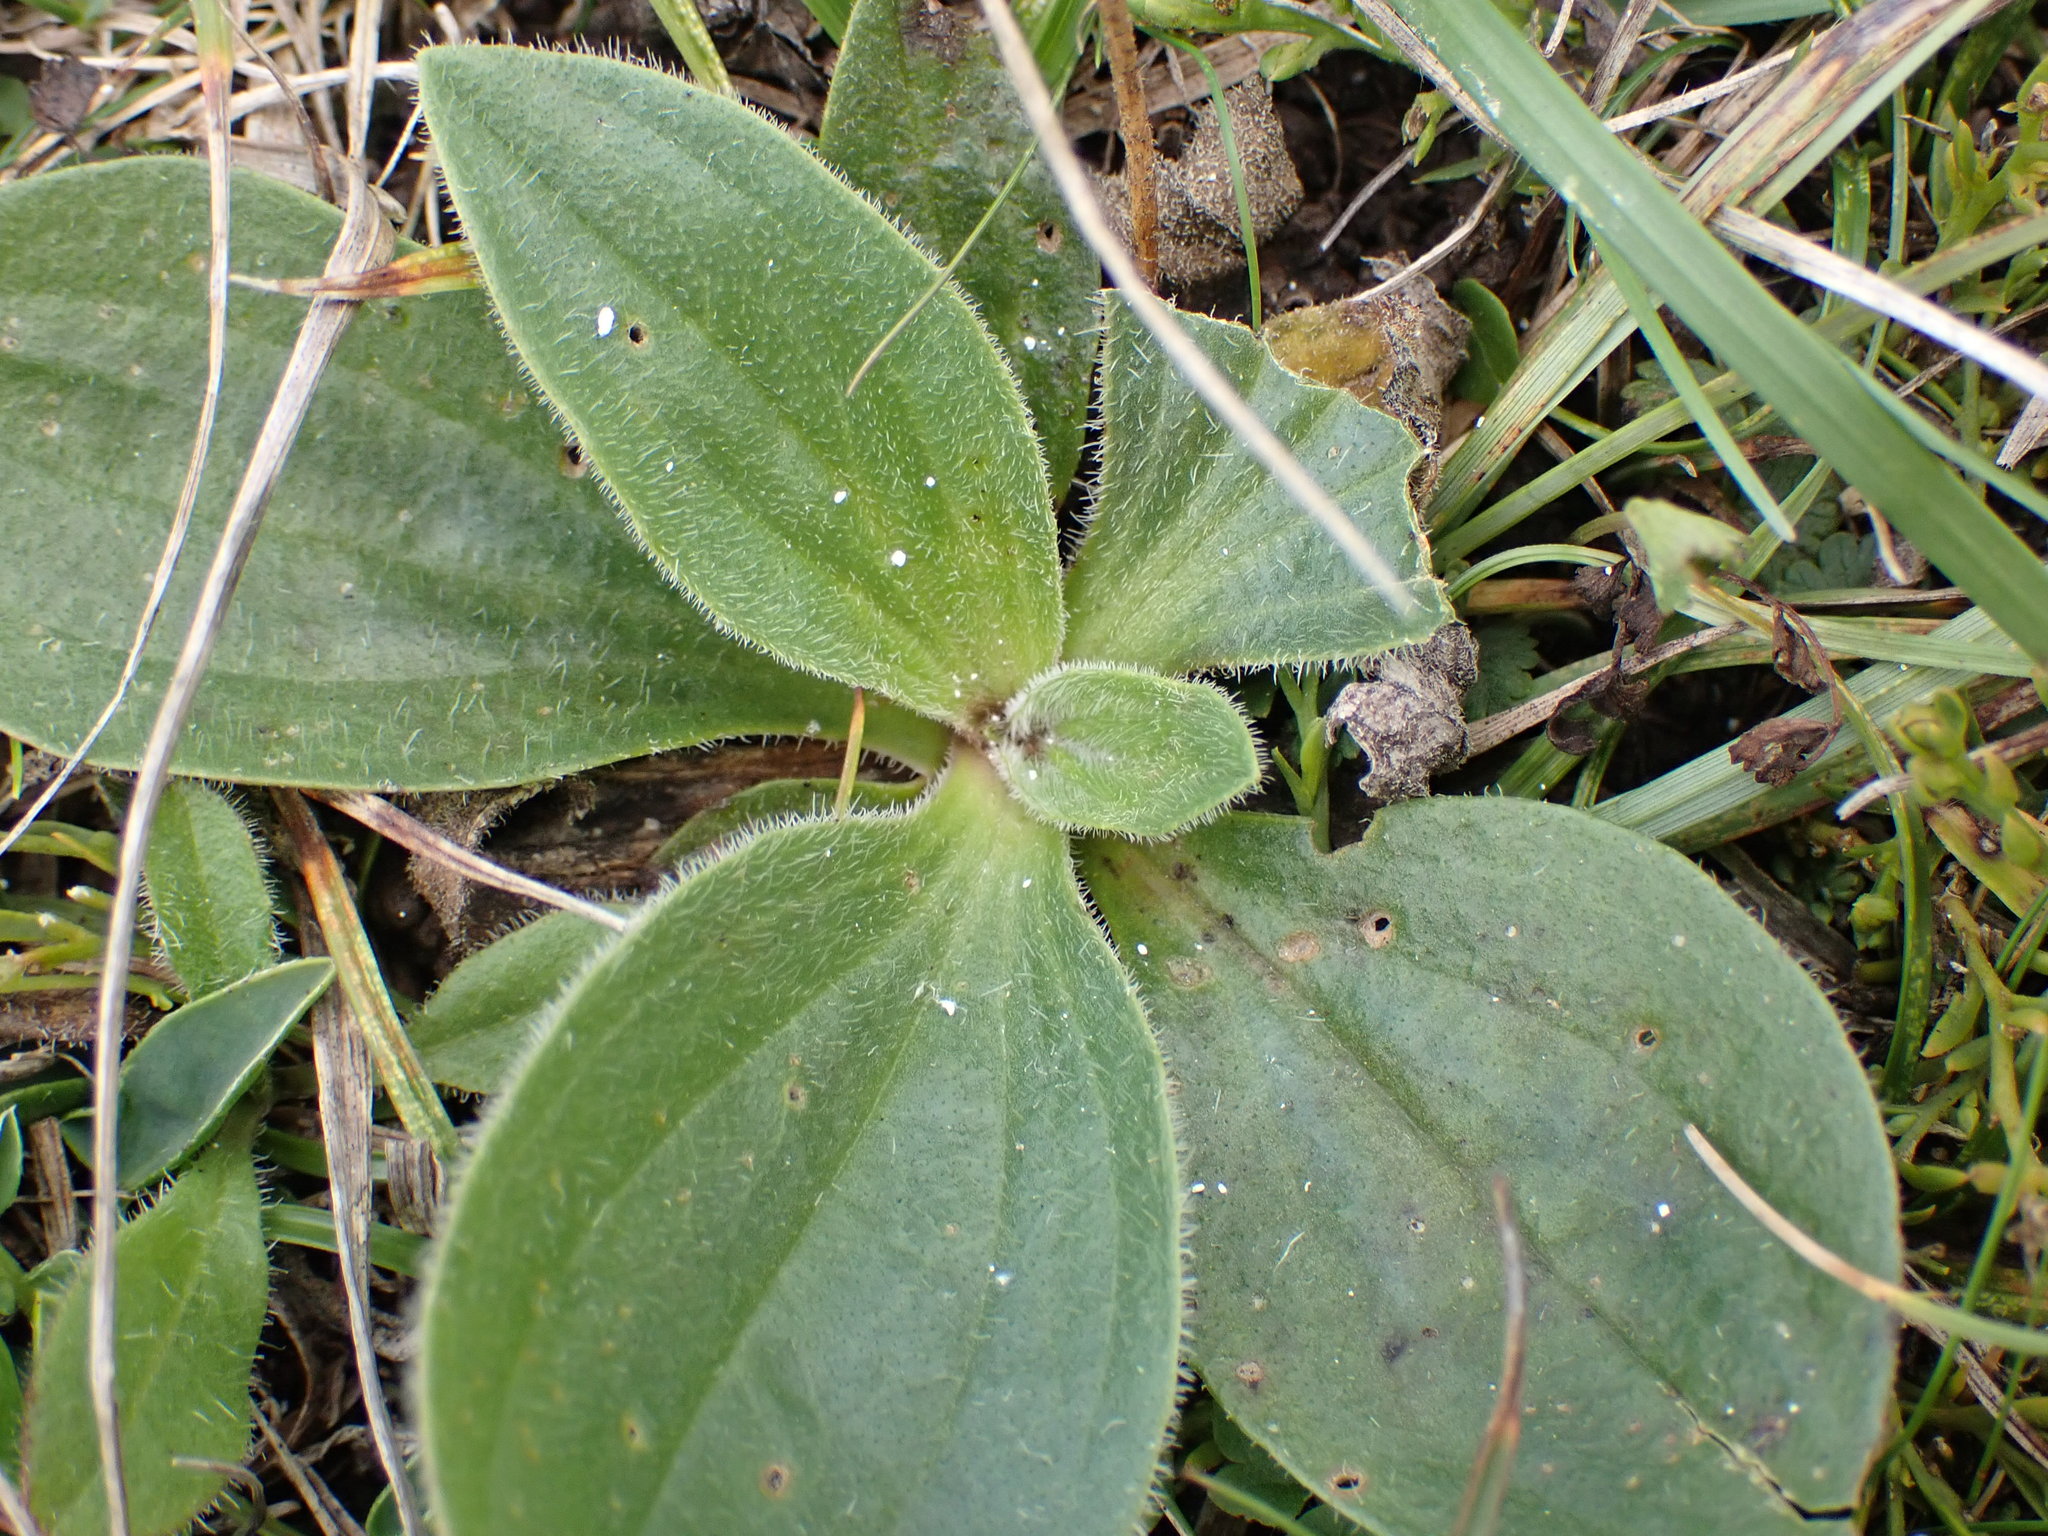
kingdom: Plantae
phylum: Tracheophyta
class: Magnoliopsida
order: Lamiales
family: Plantaginaceae
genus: Plantago
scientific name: Plantago media
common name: Hoary plantain
